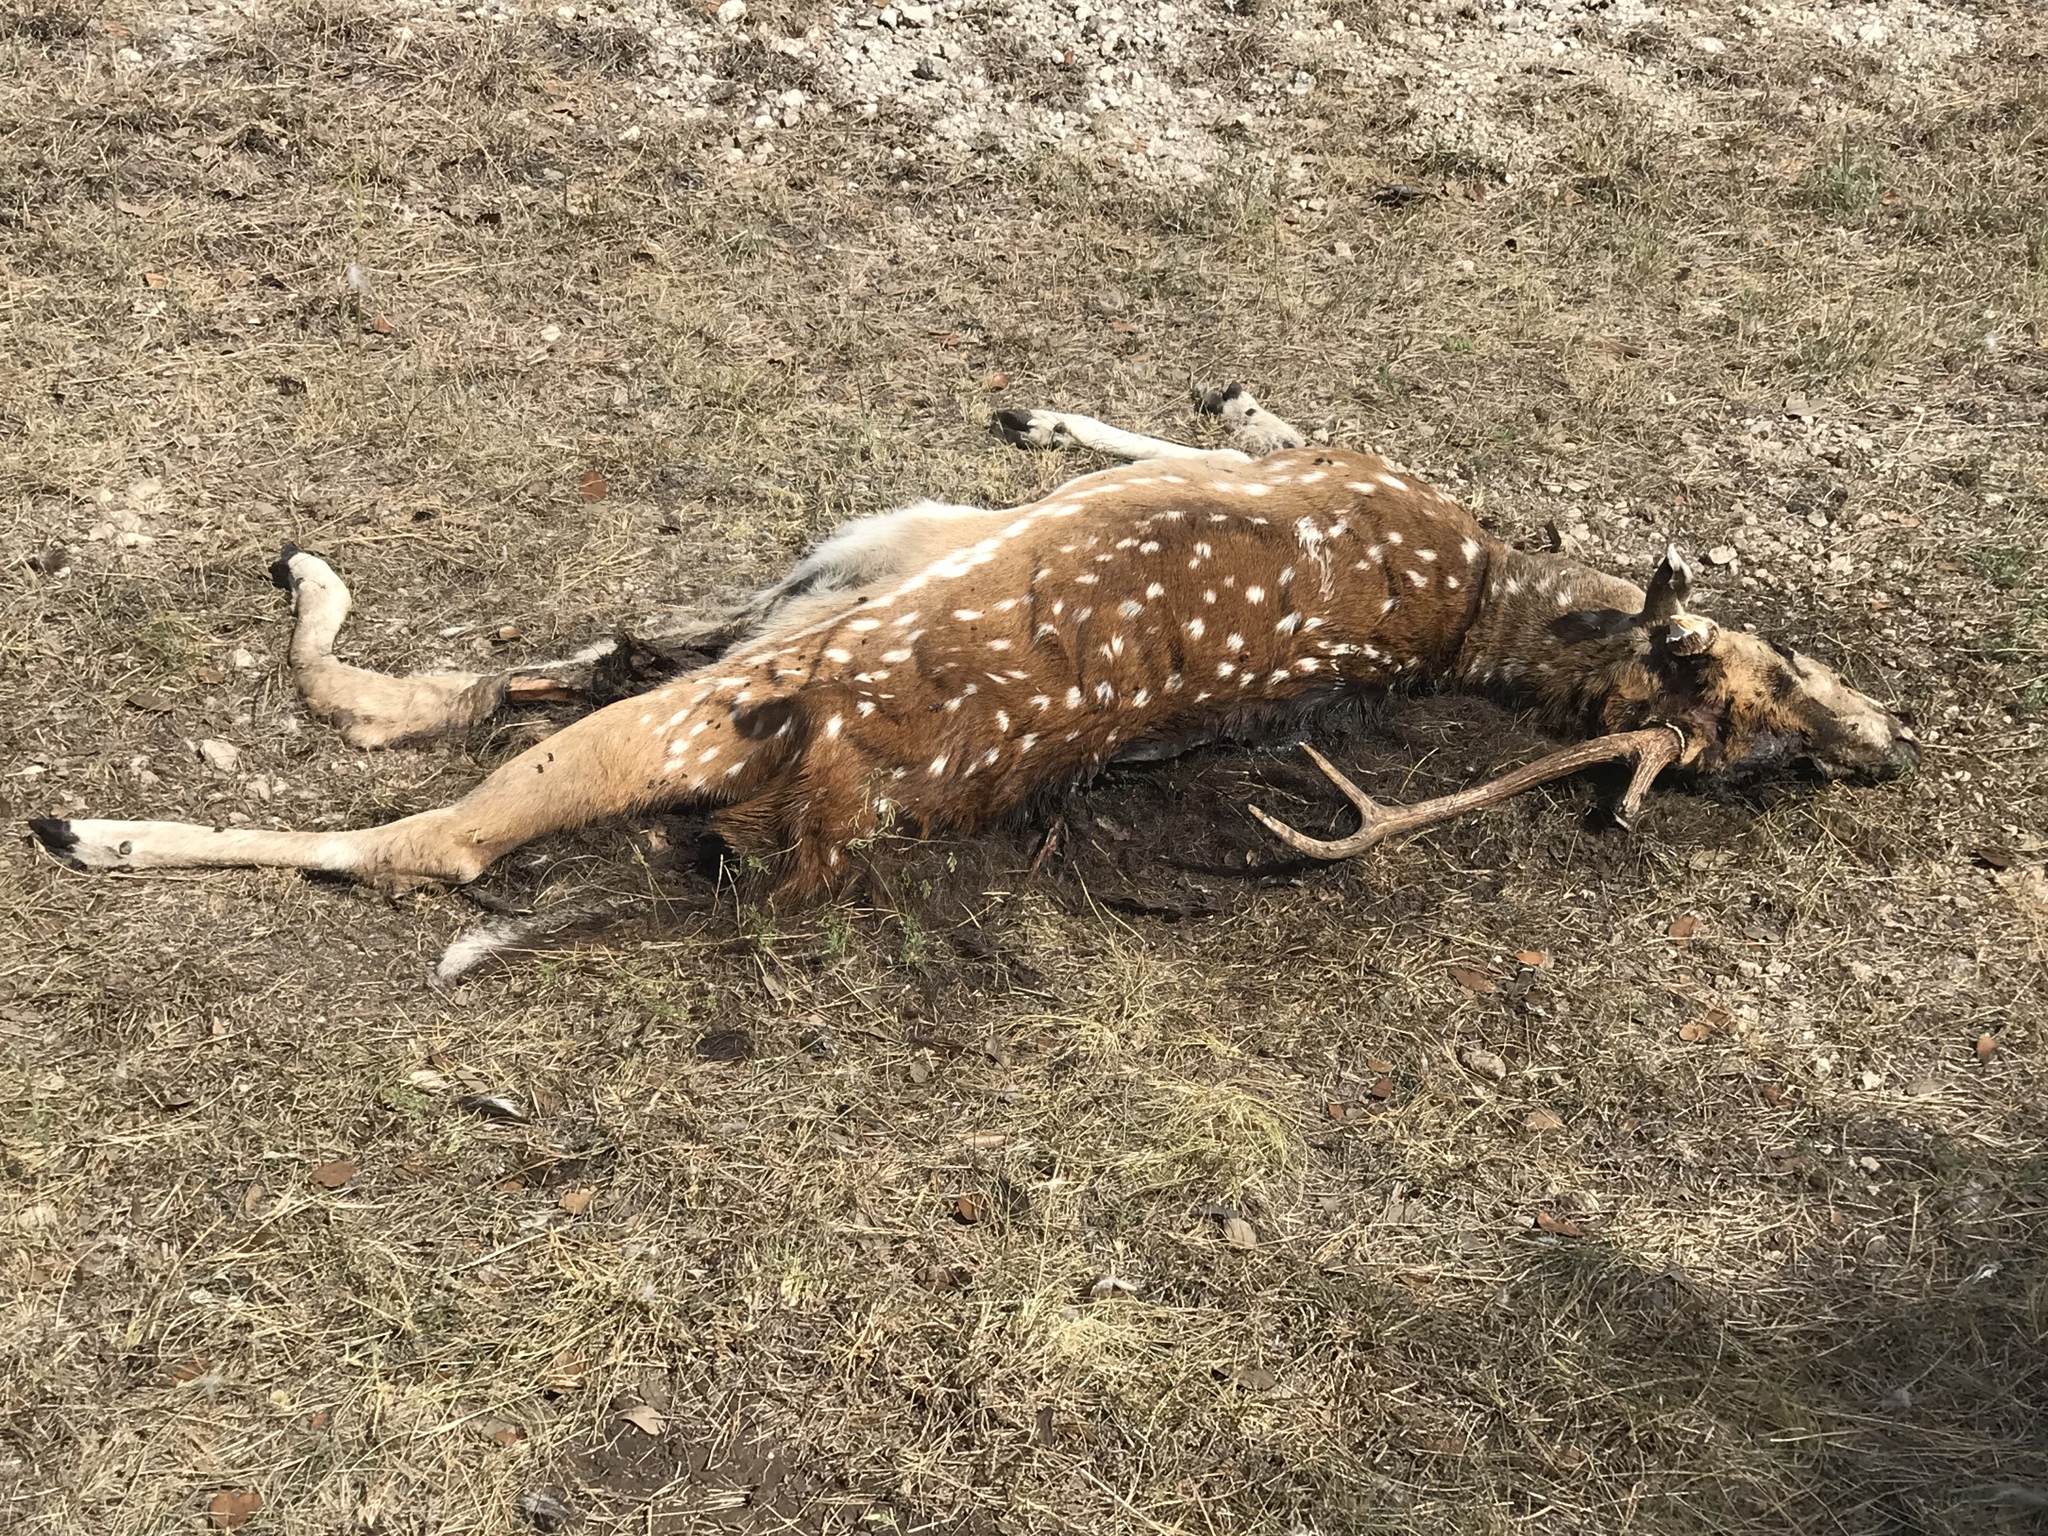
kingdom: Animalia
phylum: Chordata
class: Mammalia
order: Artiodactyla
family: Cervidae
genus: Axis
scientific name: Axis axis
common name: Chital
